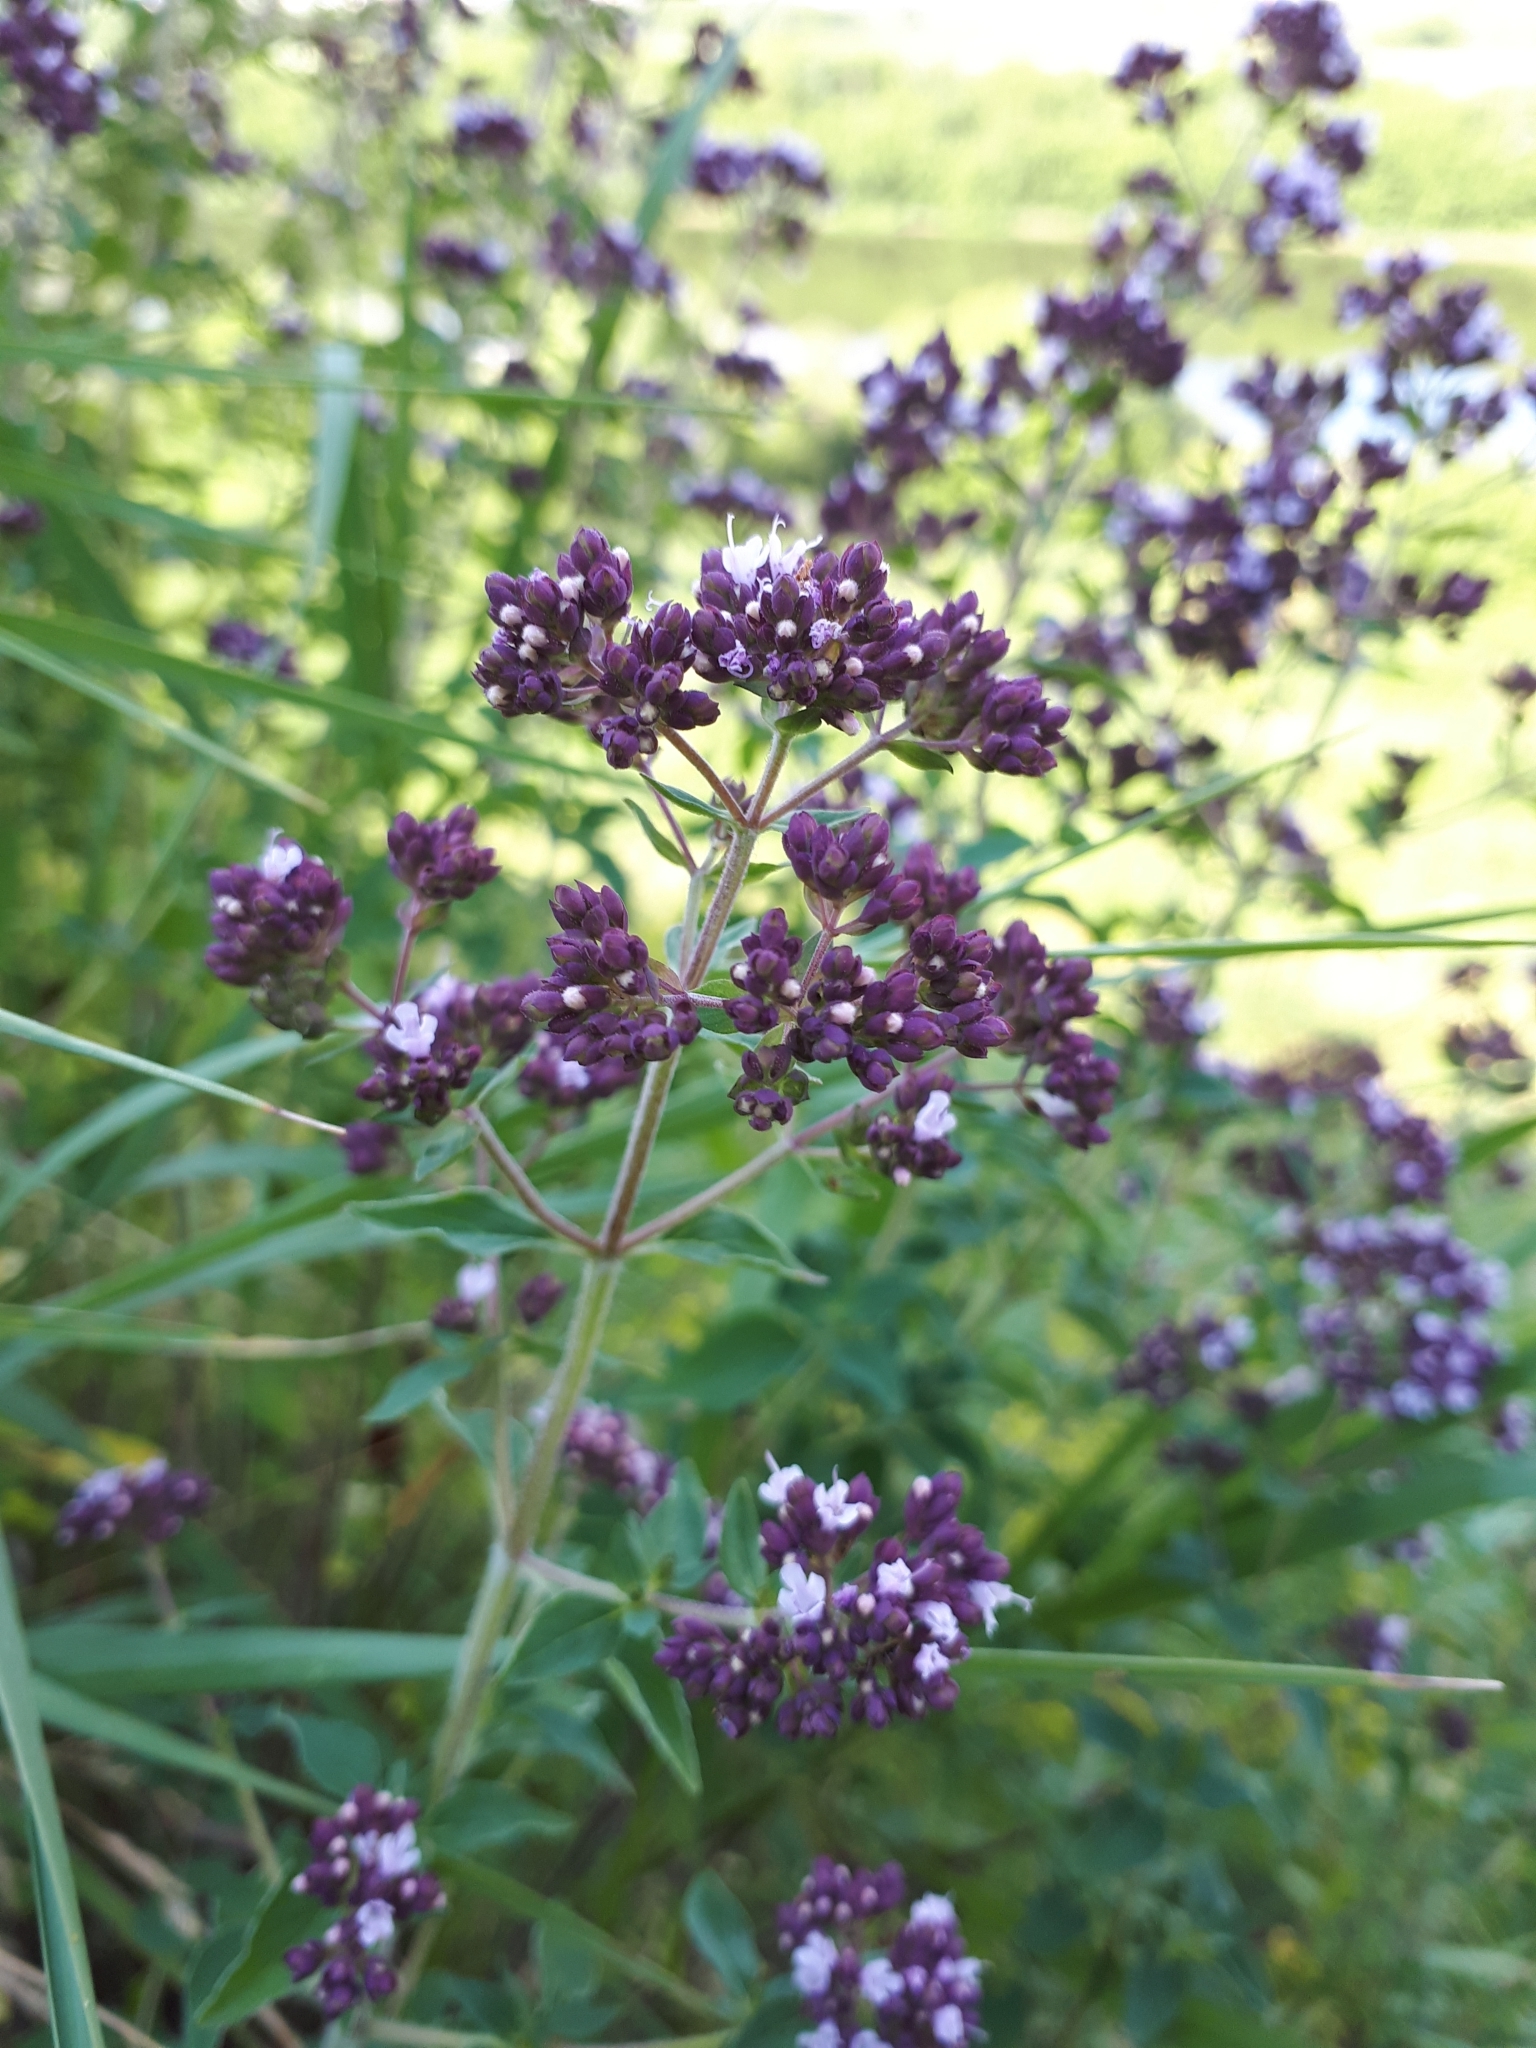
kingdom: Plantae
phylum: Tracheophyta
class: Magnoliopsida
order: Lamiales
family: Lamiaceae
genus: Origanum
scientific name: Origanum vulgare
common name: Wild marjoram
